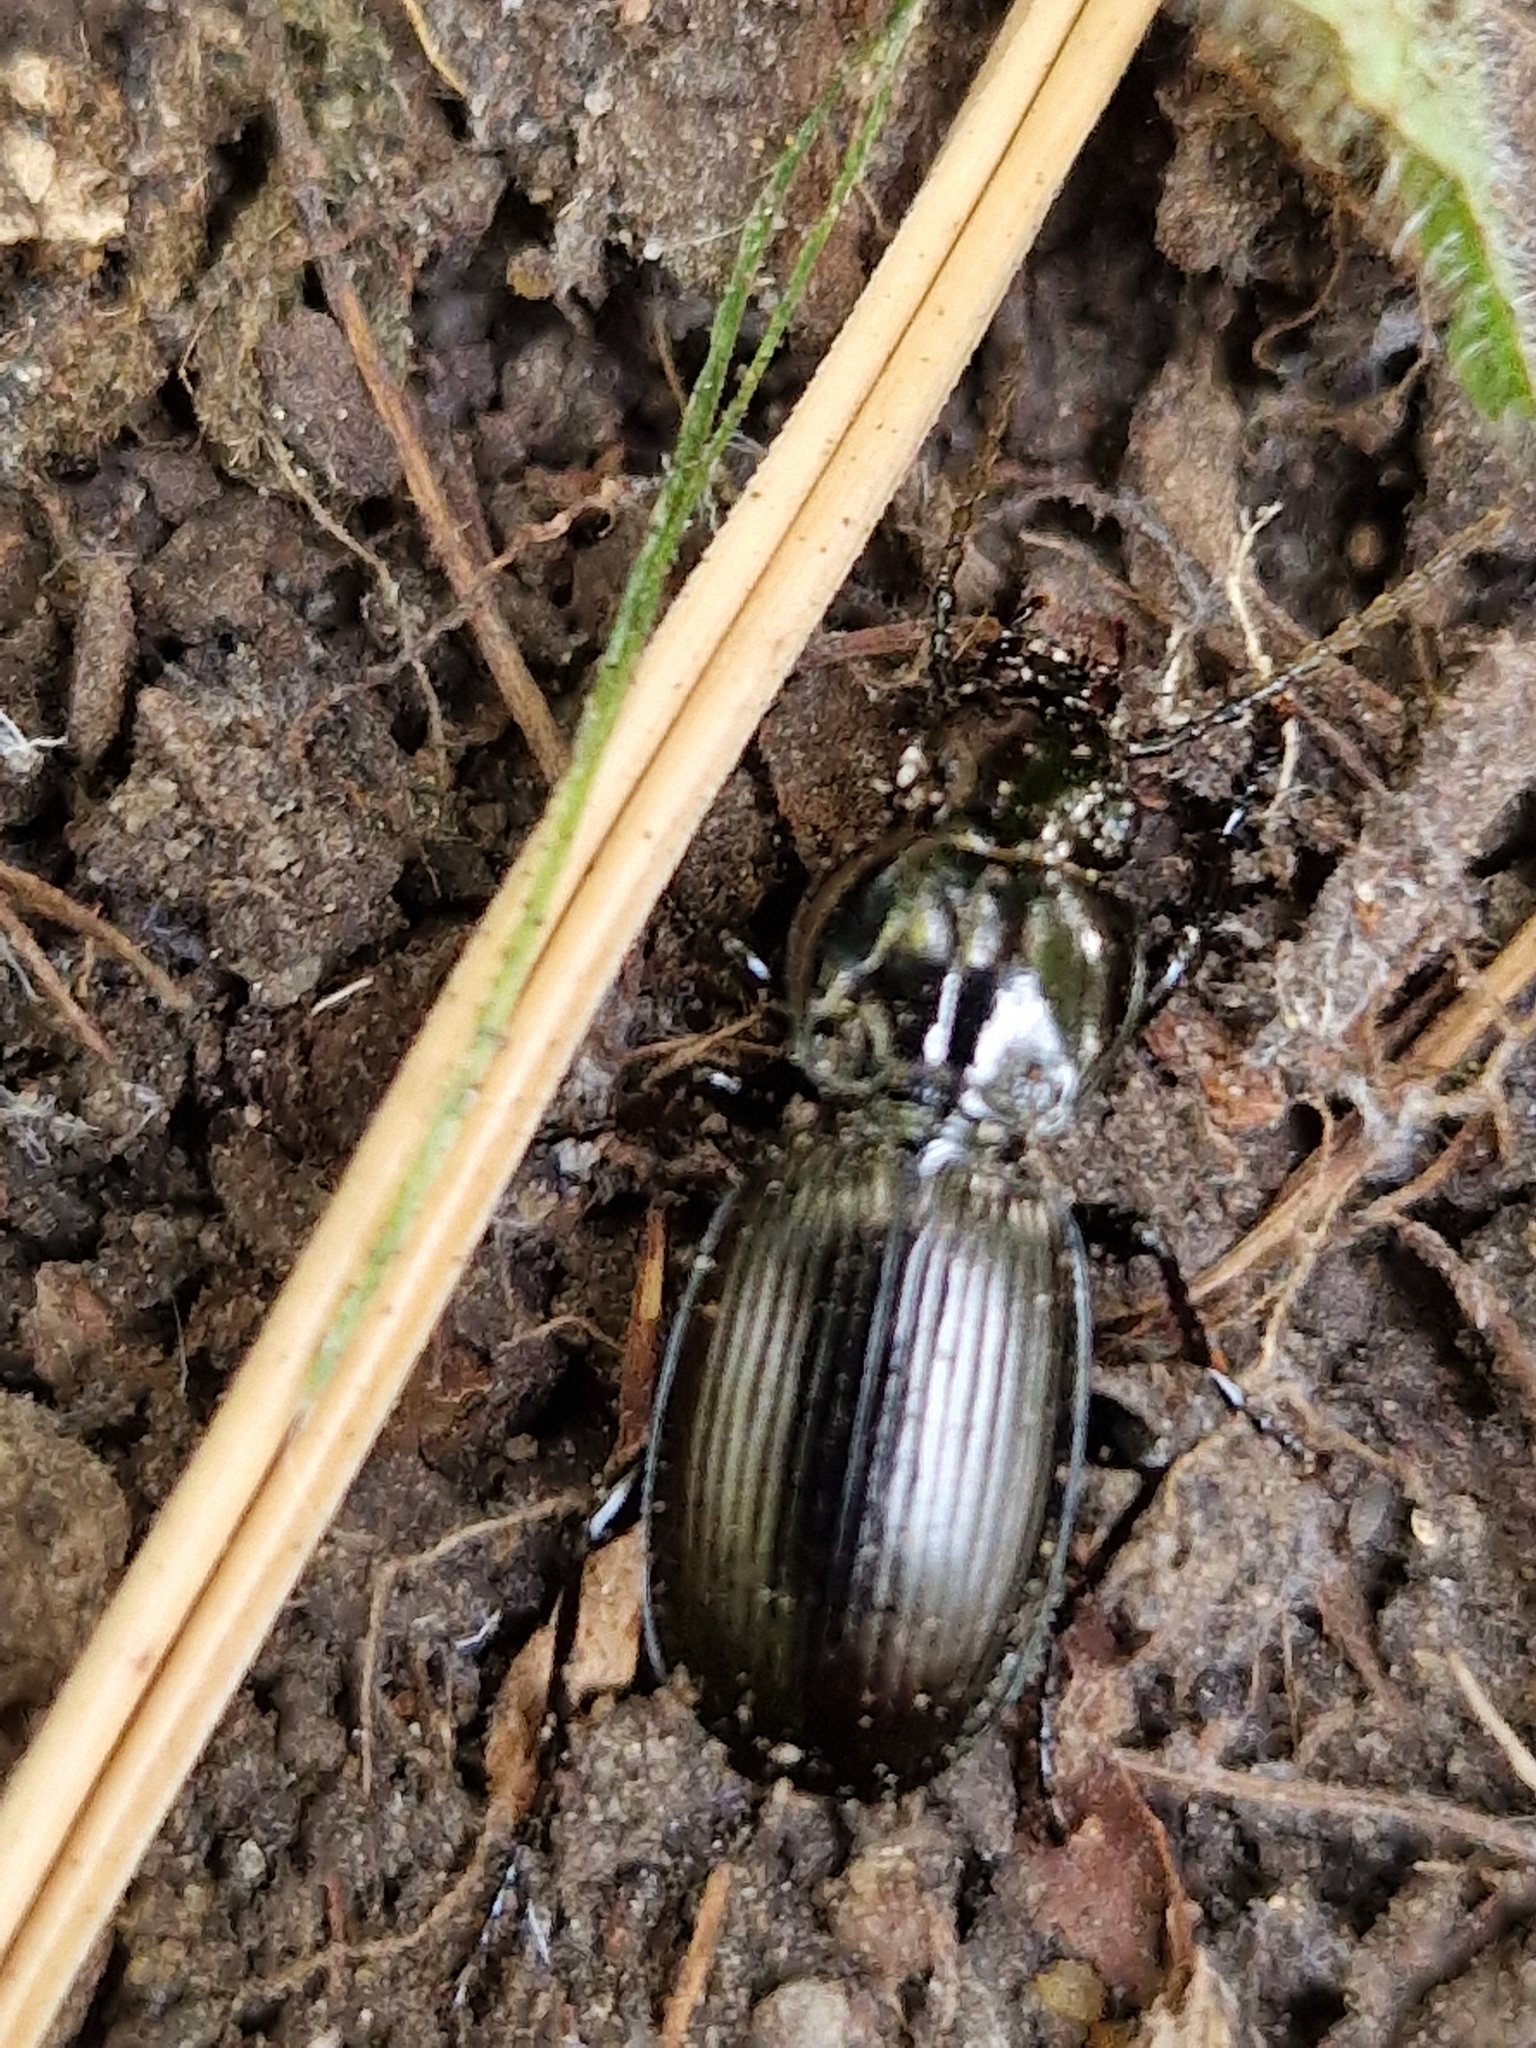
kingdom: Animalia
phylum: Arthropoda
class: Insecta
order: Coleoptera
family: Carabidae
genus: Pterostichus
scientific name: Pterostichus madidus
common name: Black clock
